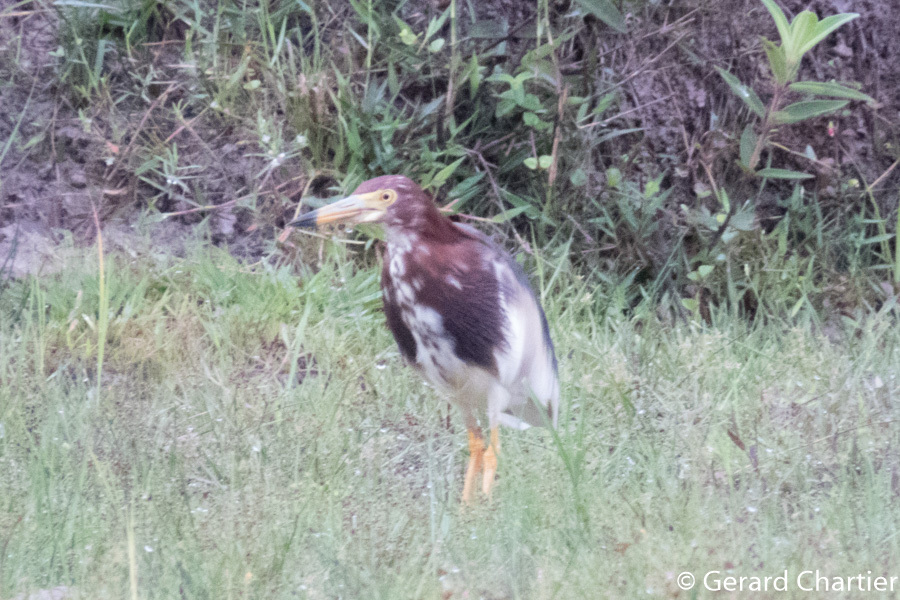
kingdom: Animalia
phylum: Chordata
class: Aves
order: Pelecaniformes
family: Ardeidae
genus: Ardeola
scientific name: Ardeola bacchus
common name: Chinese pond heron
